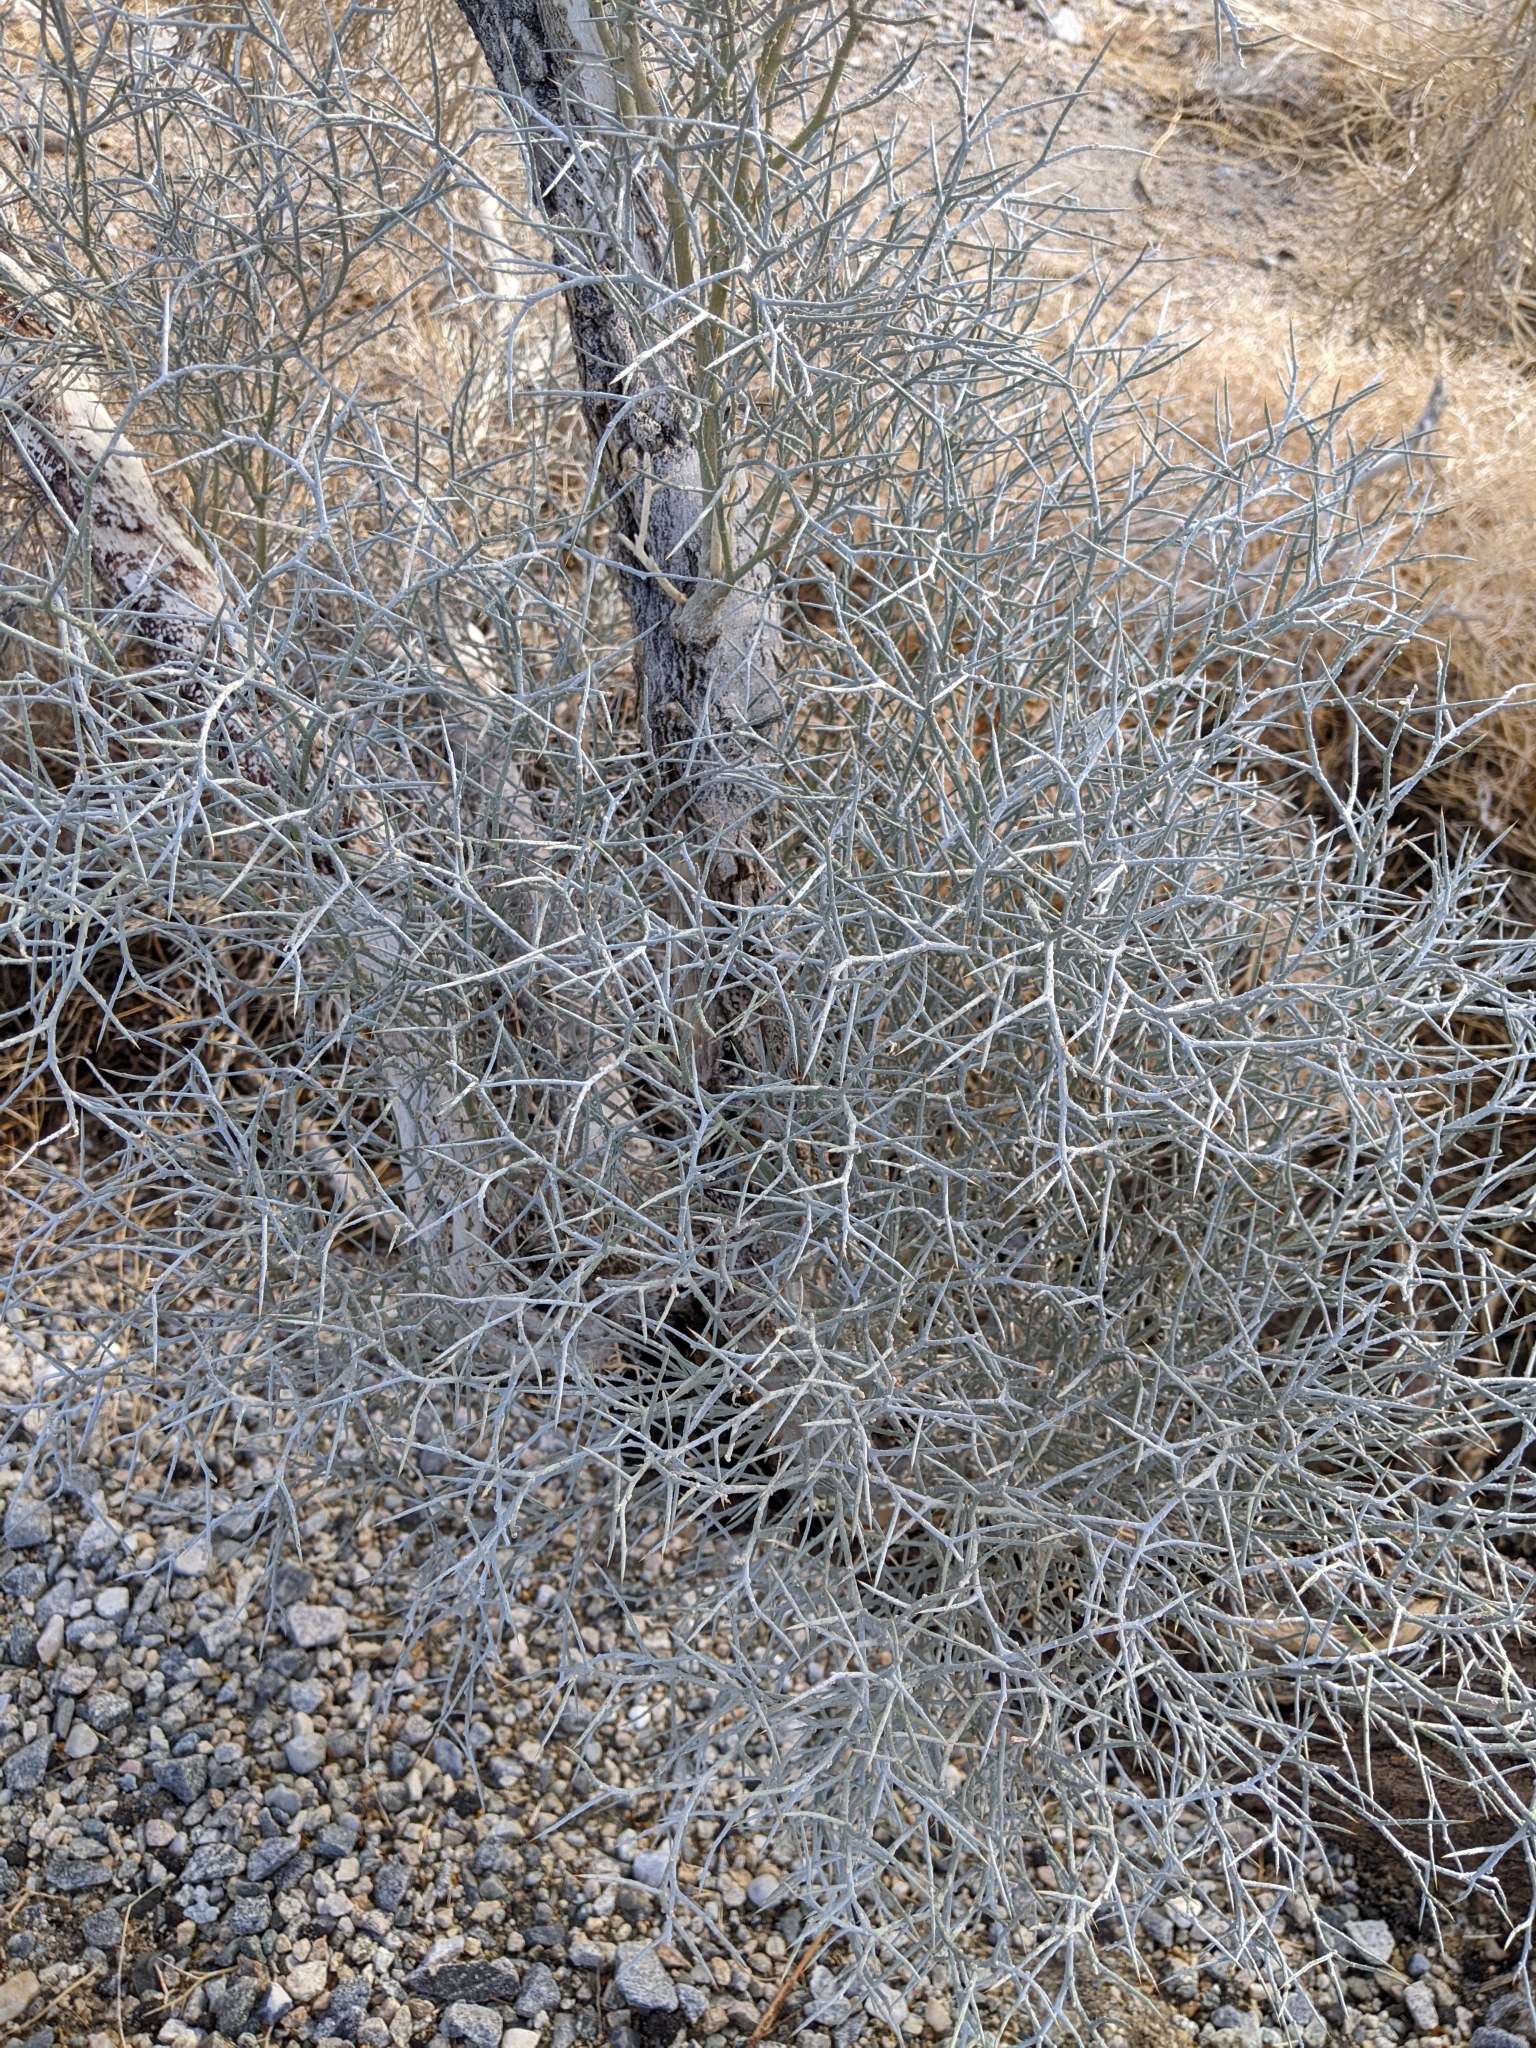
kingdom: Plantae
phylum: Tracheophyta
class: Magnoliopsida
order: Fabales
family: Fabaceae
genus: Psorothamnus
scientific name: Psorothamnus spinosus
